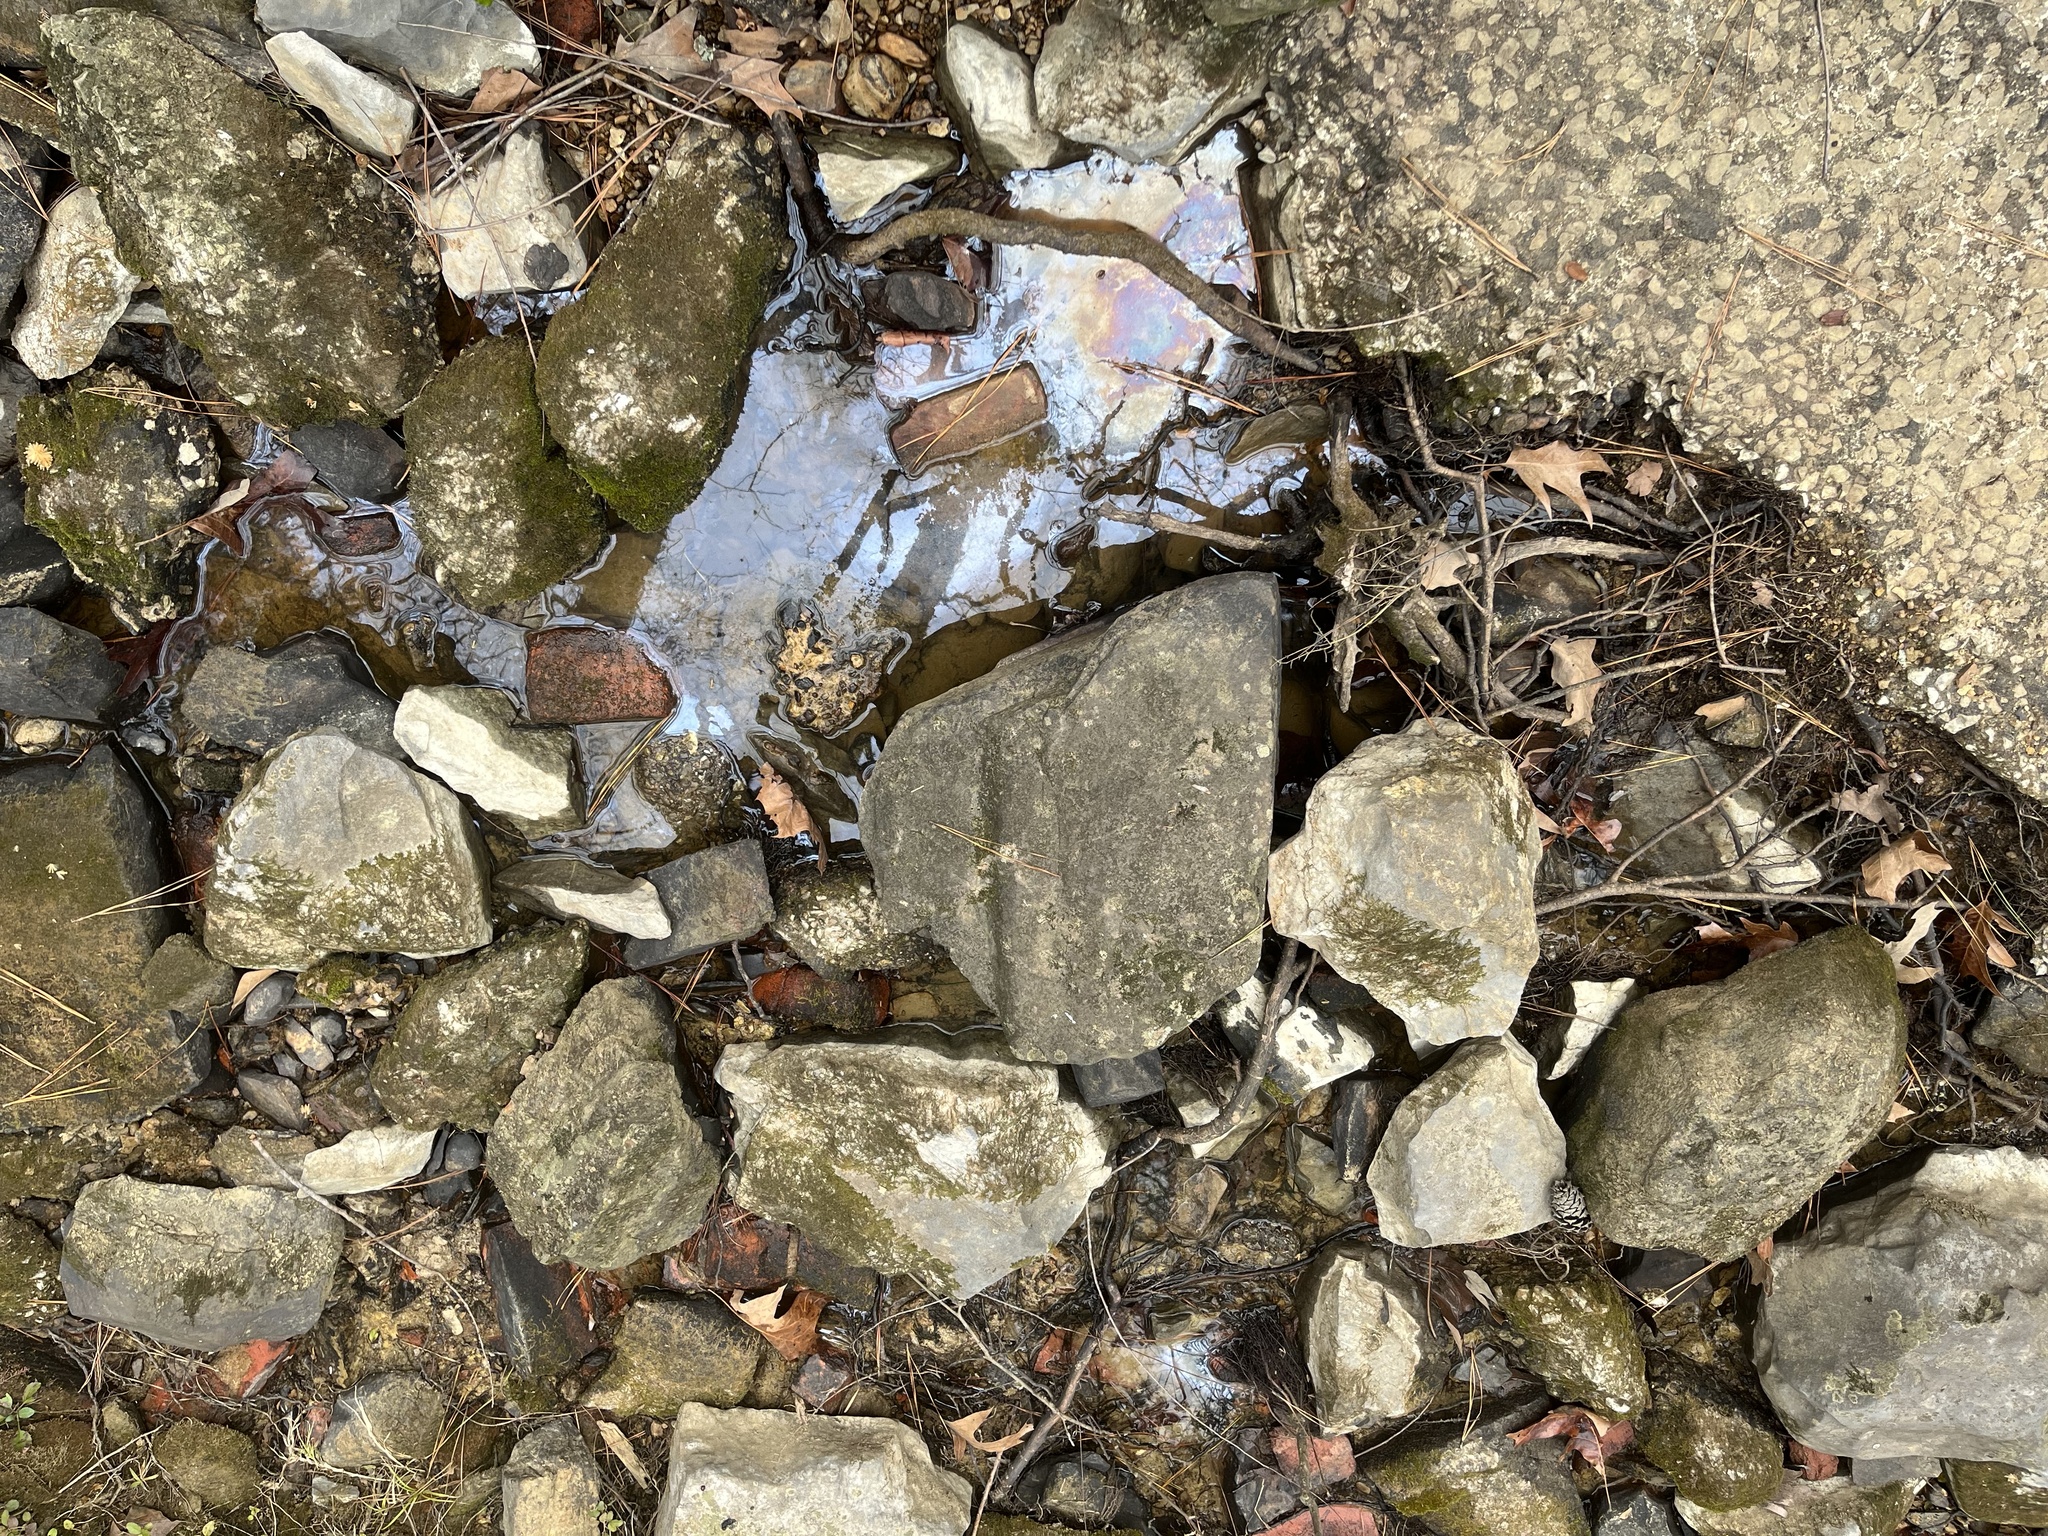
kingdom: Bacteria
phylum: Proteobacteria
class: Gammaproteobacteria
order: Burkholderiales
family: Burkholderiaceae
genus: Leptothrix
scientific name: Leptothrix discophora
